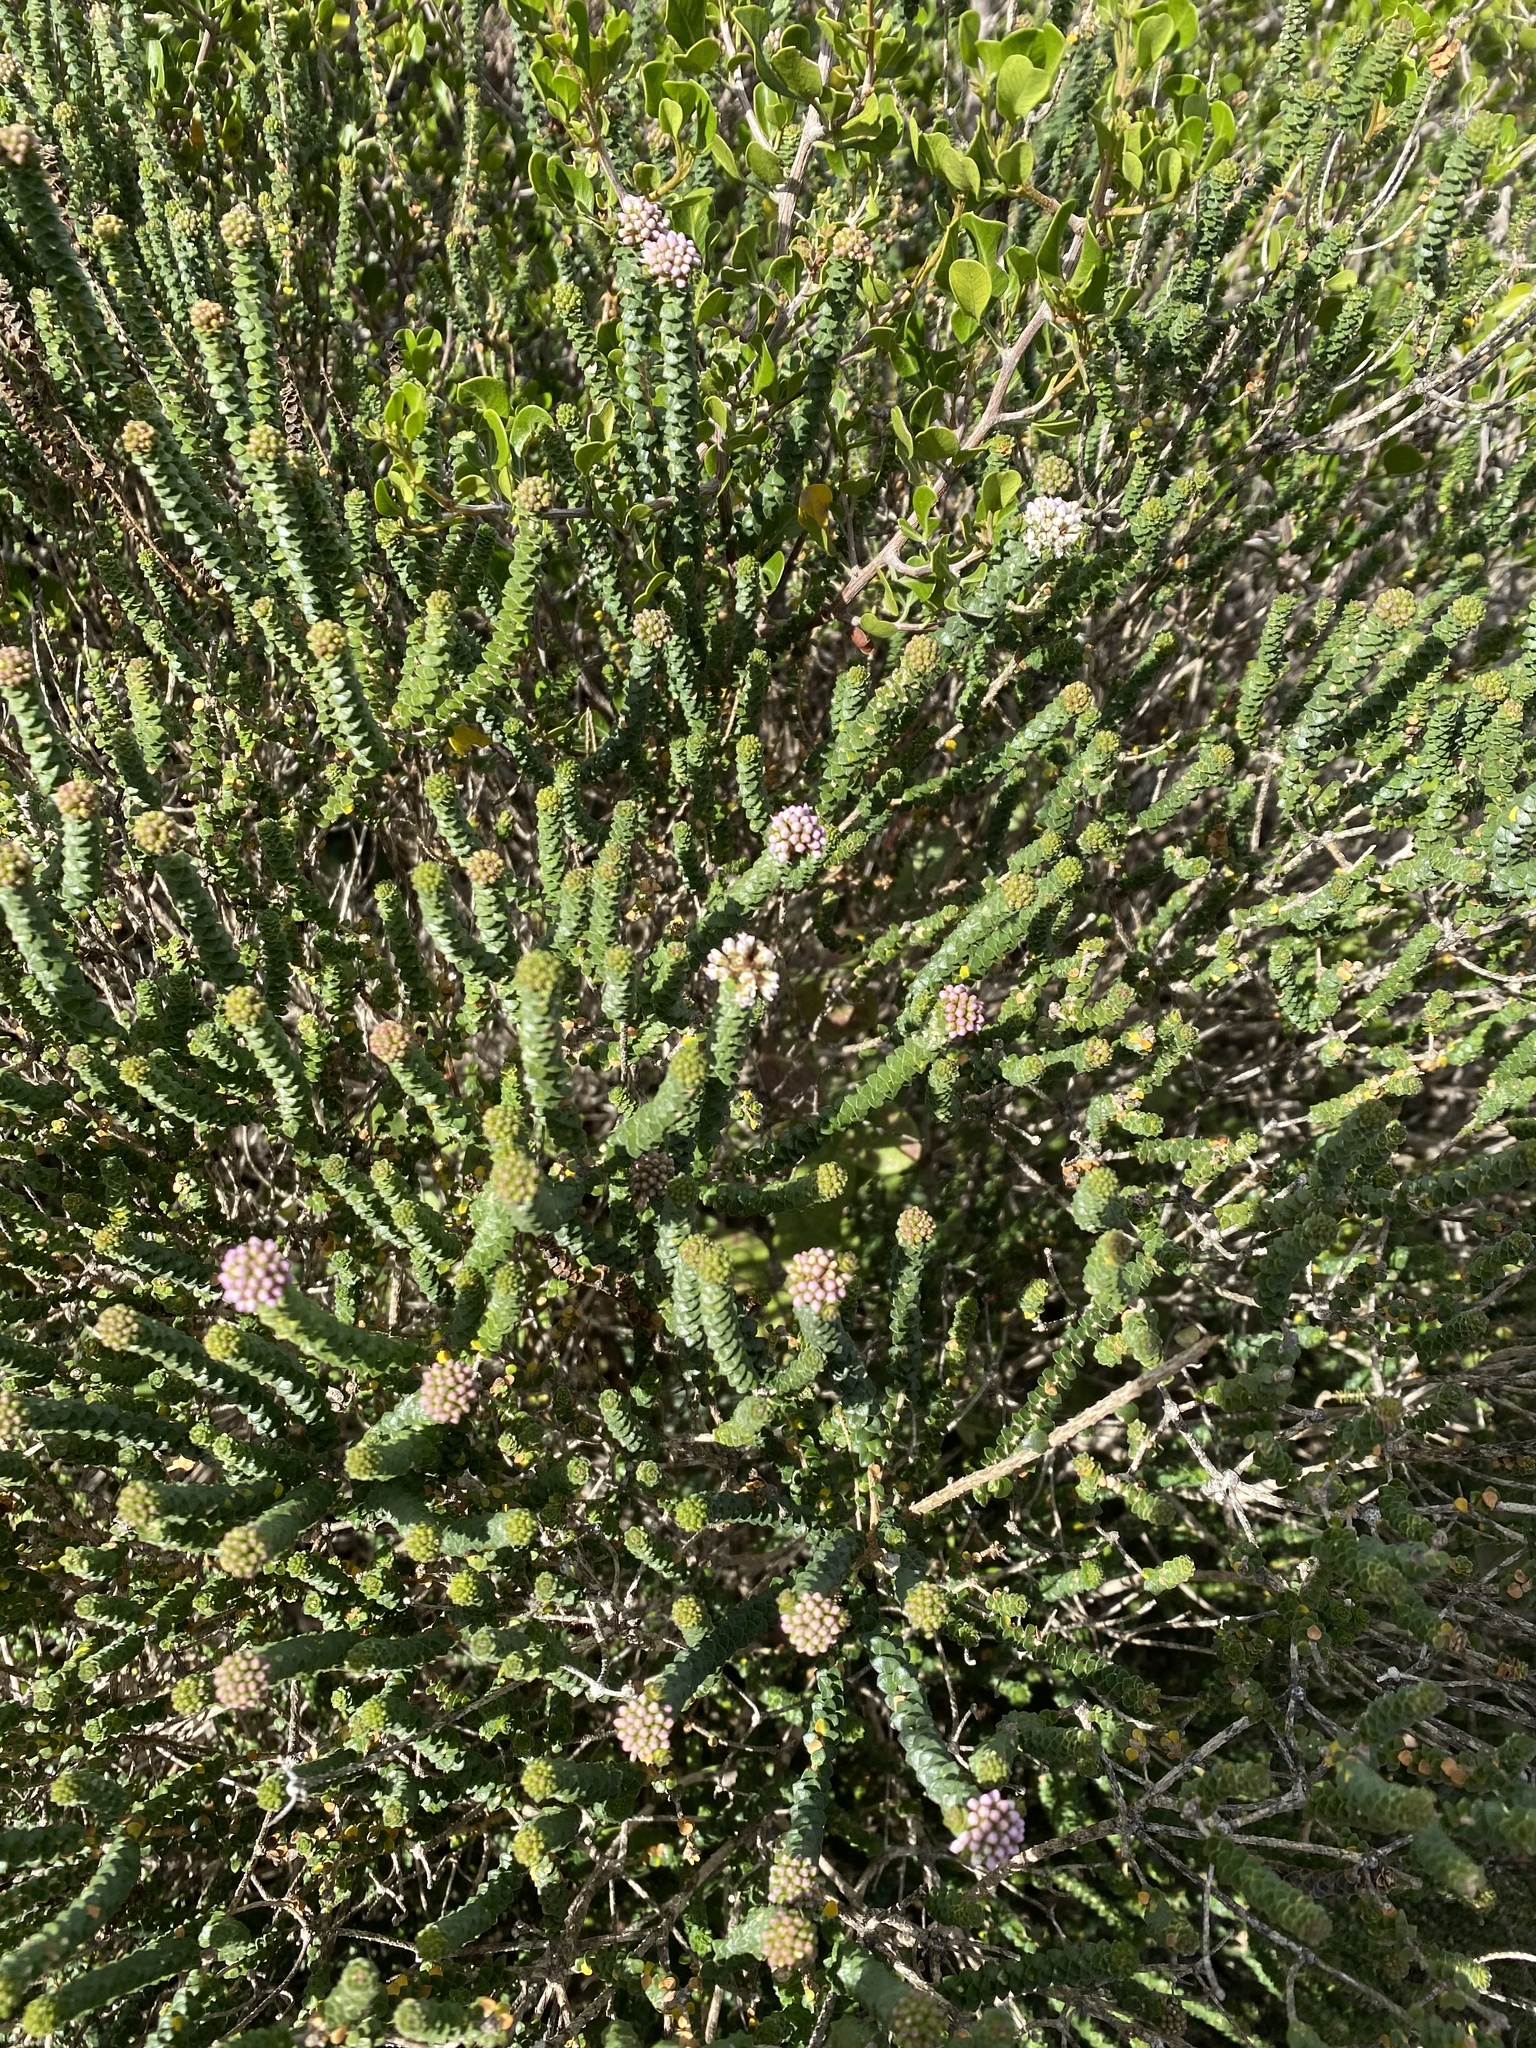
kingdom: Plantae
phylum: Tracheophyta
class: Magnoliopsida
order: Sapindales
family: Rutaceae
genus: Agathosma
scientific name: Agathosma muirii
